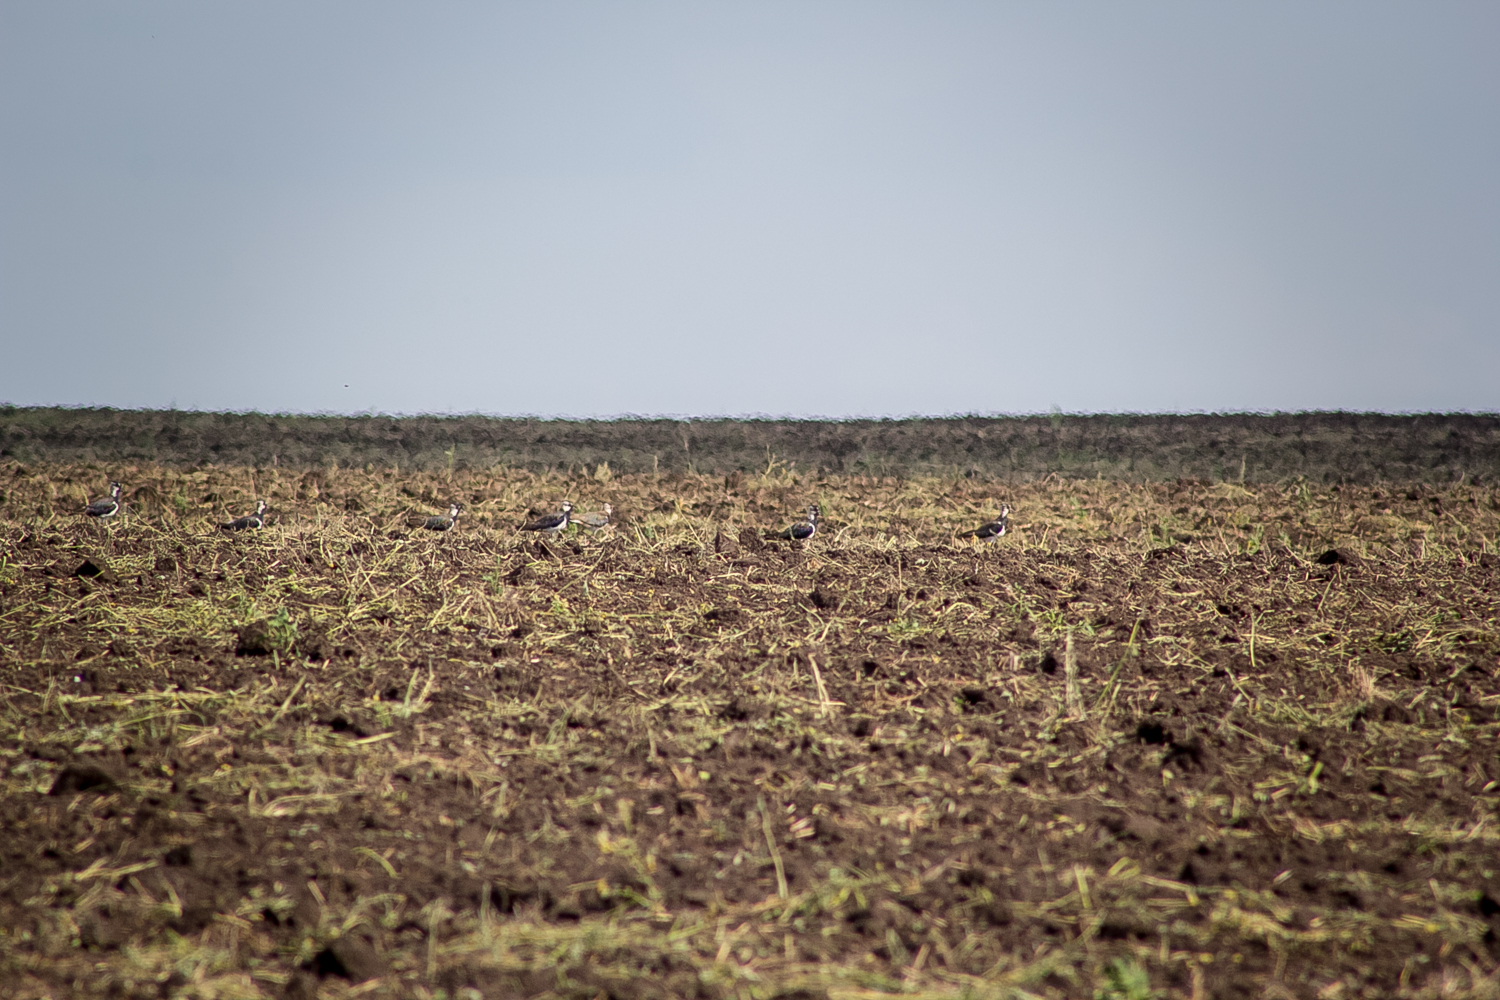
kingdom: Animalia
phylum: Chordata
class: Aves
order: Charadriiformes
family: Charadriidae
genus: Vanellus
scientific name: Vanellus vanellus
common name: Northern lapwing
